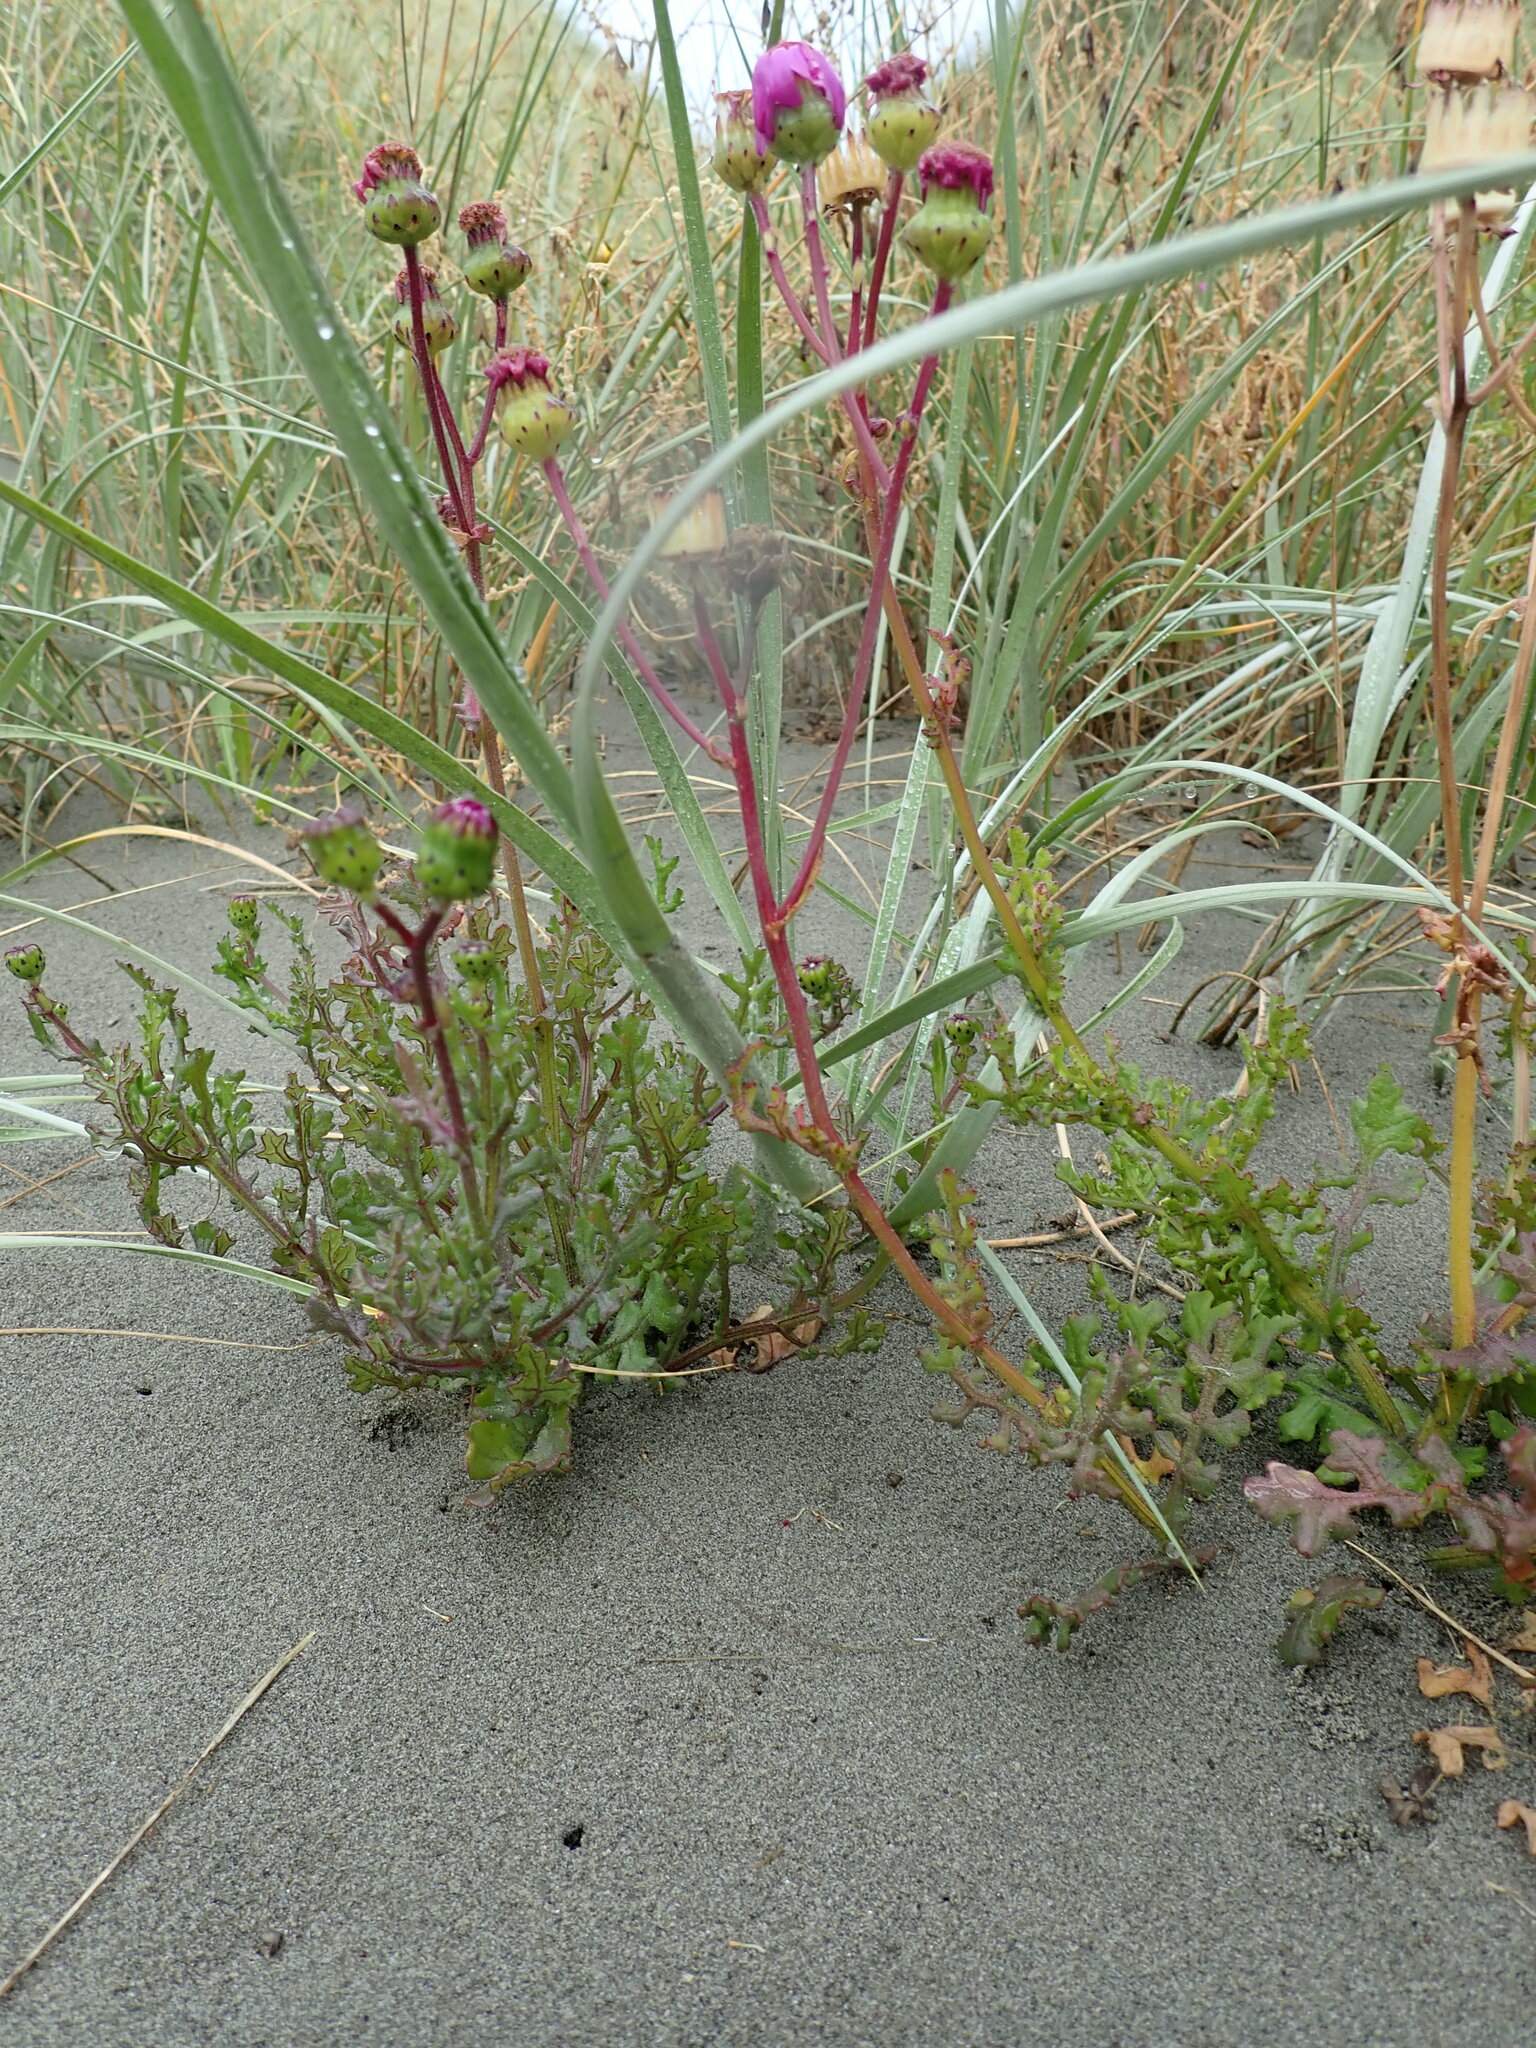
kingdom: Plantae
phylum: Tracheophyta
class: Magnoliopsida
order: Asterales
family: Asteraceae
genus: Senecio
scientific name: Senecio elegans
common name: Purple groundsel
